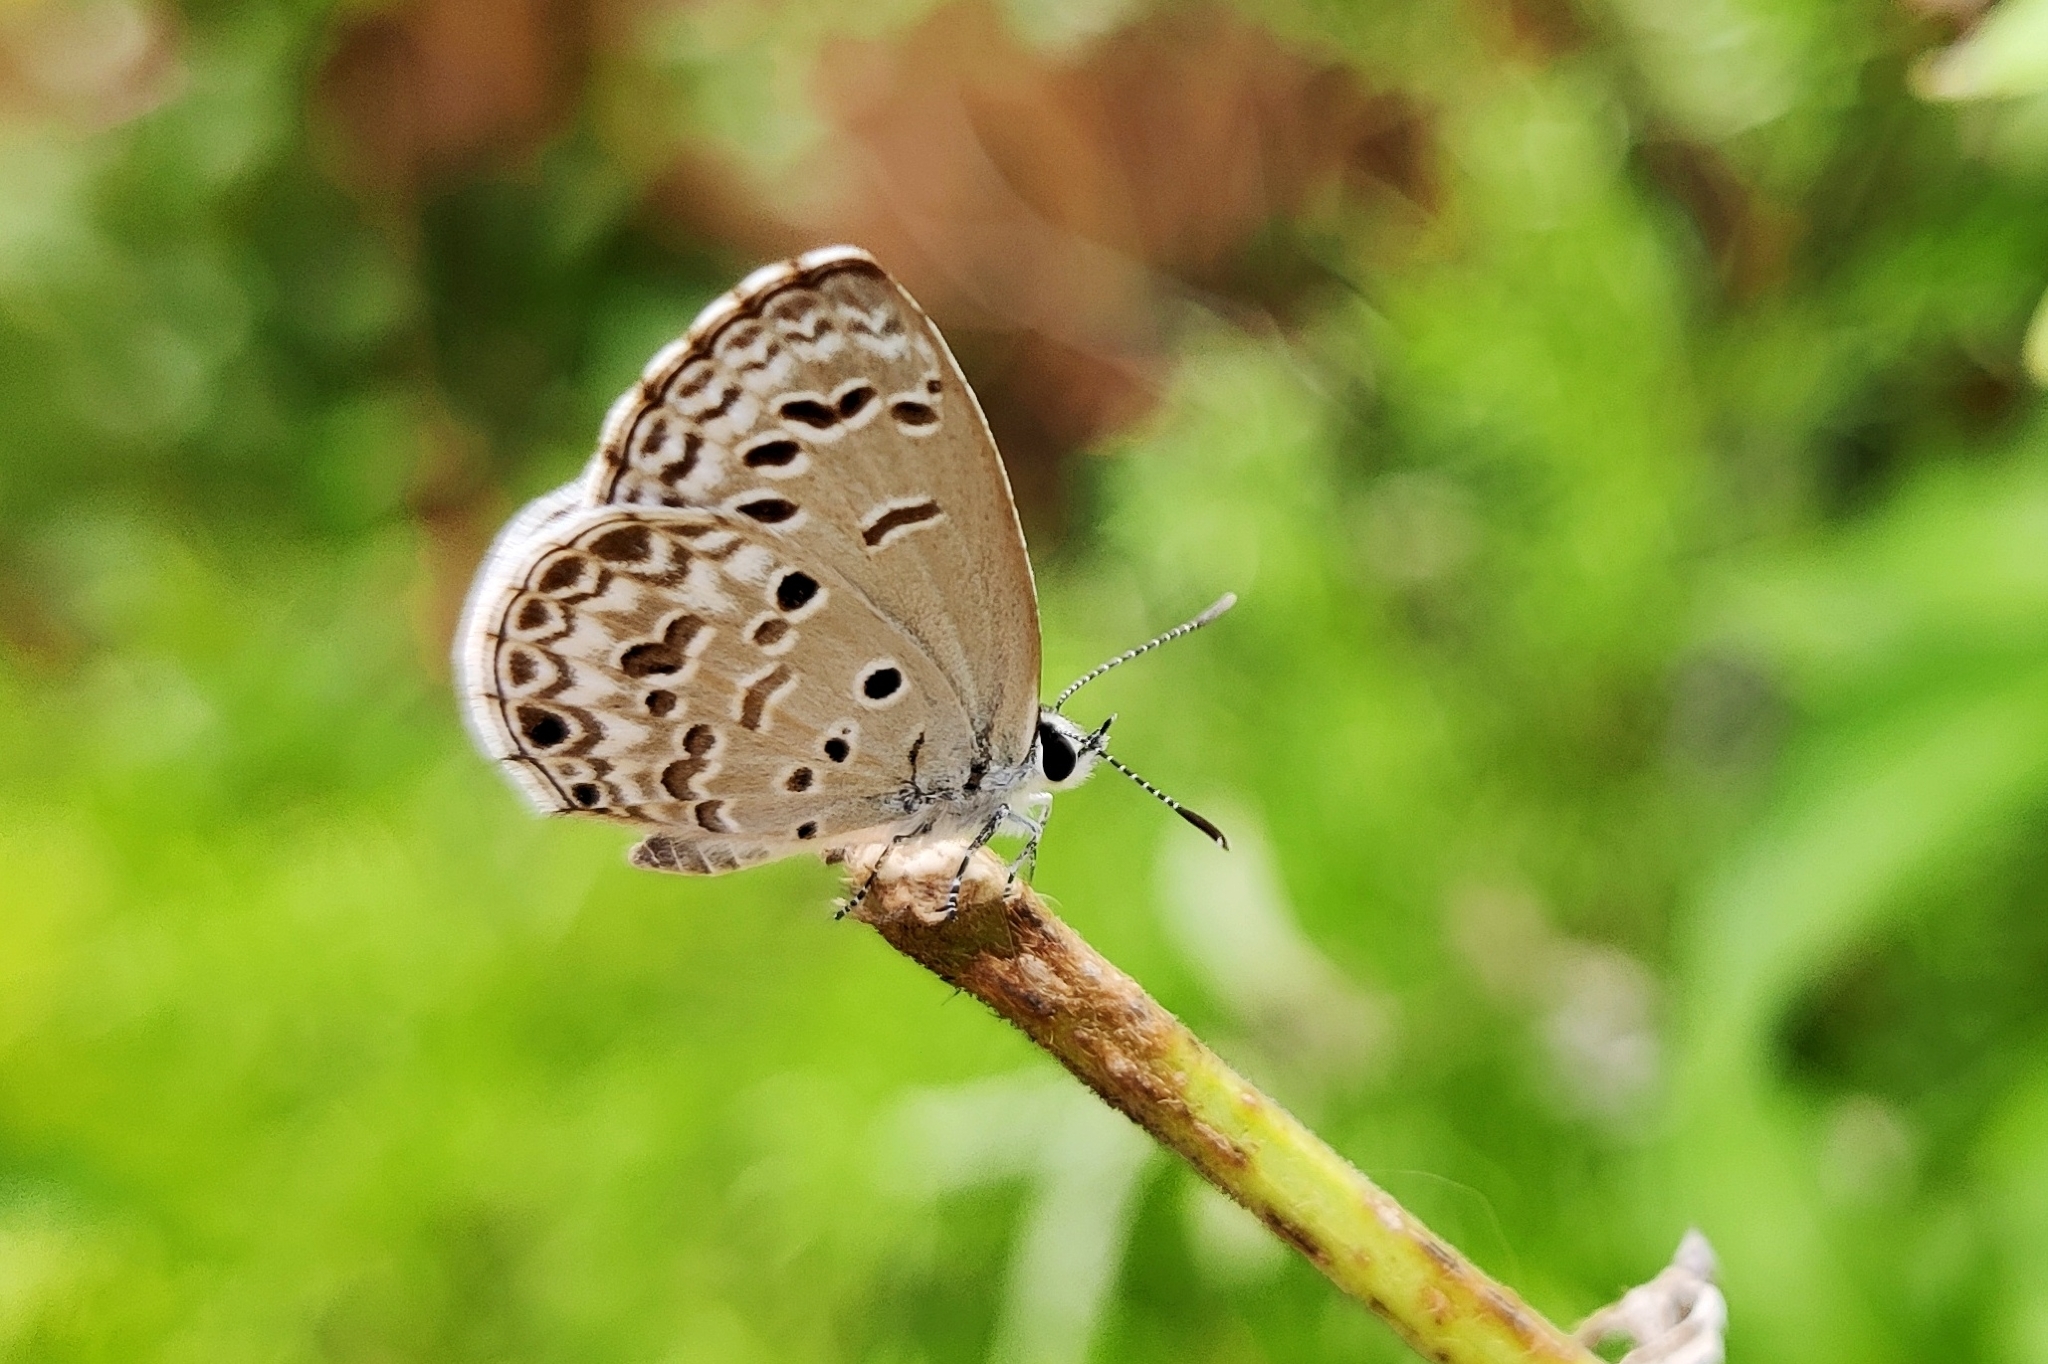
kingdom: Animalia
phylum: Arthropoda
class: Insecta
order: Lepidoptera
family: Lycaenidae
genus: Chilades
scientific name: Chilades laius
